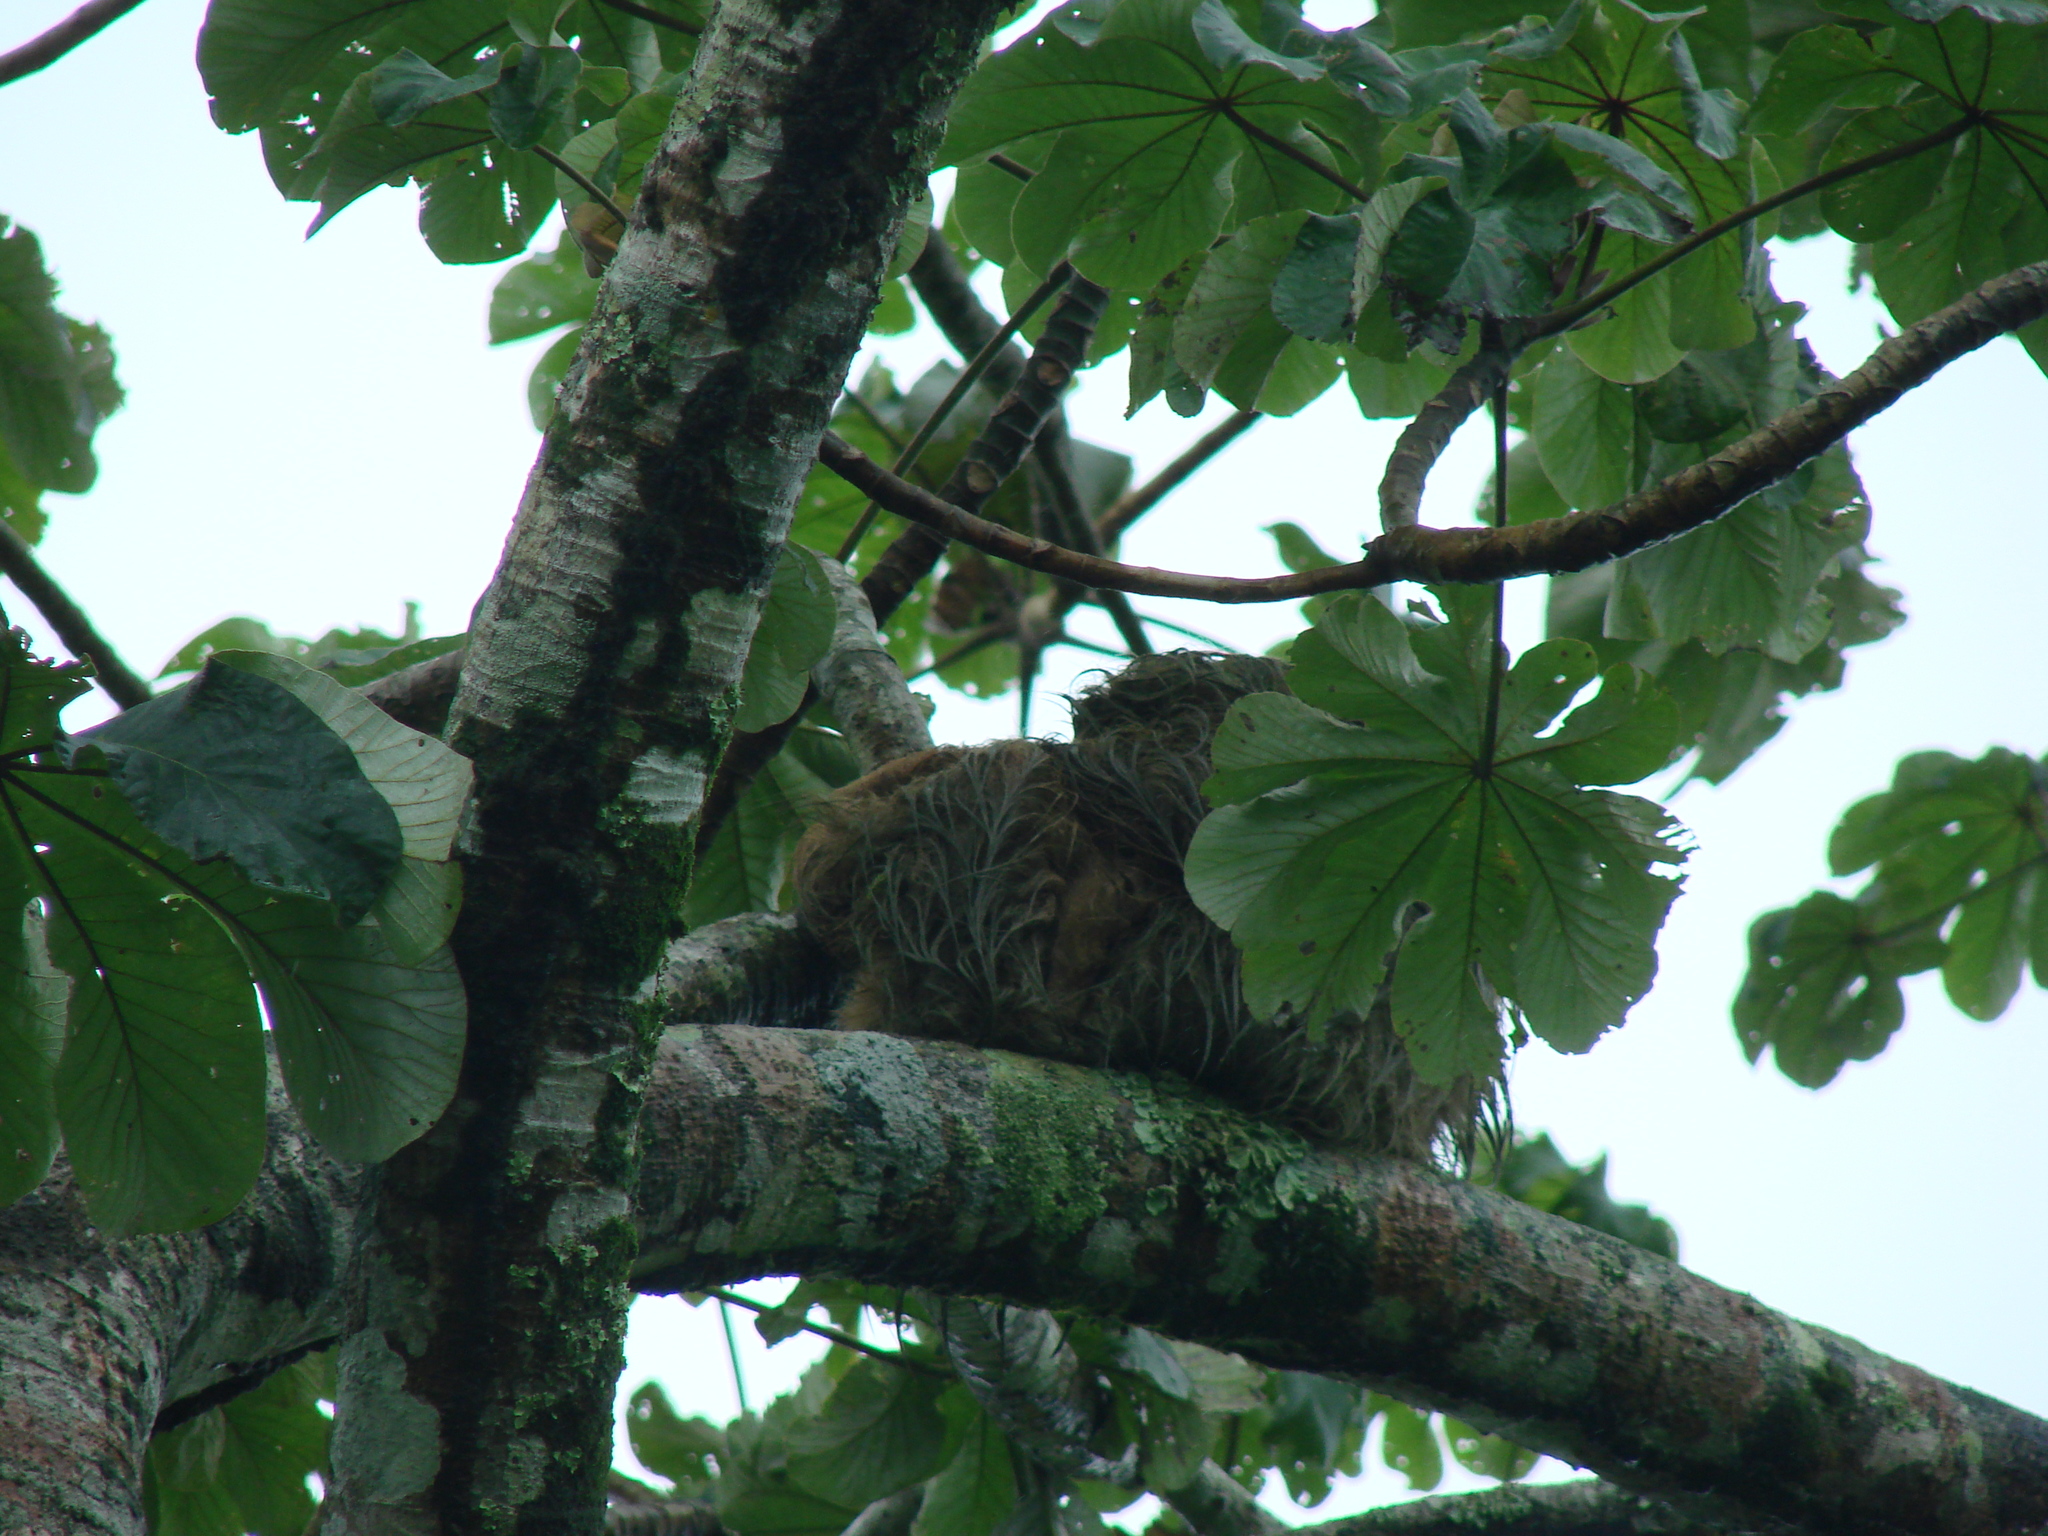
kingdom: Animalia
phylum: Chordata
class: Mammalia
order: Pilosa
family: Bradypodidae
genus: Bradypus
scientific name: Bradypus variegatus
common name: Brown-throated three-toed sloth
